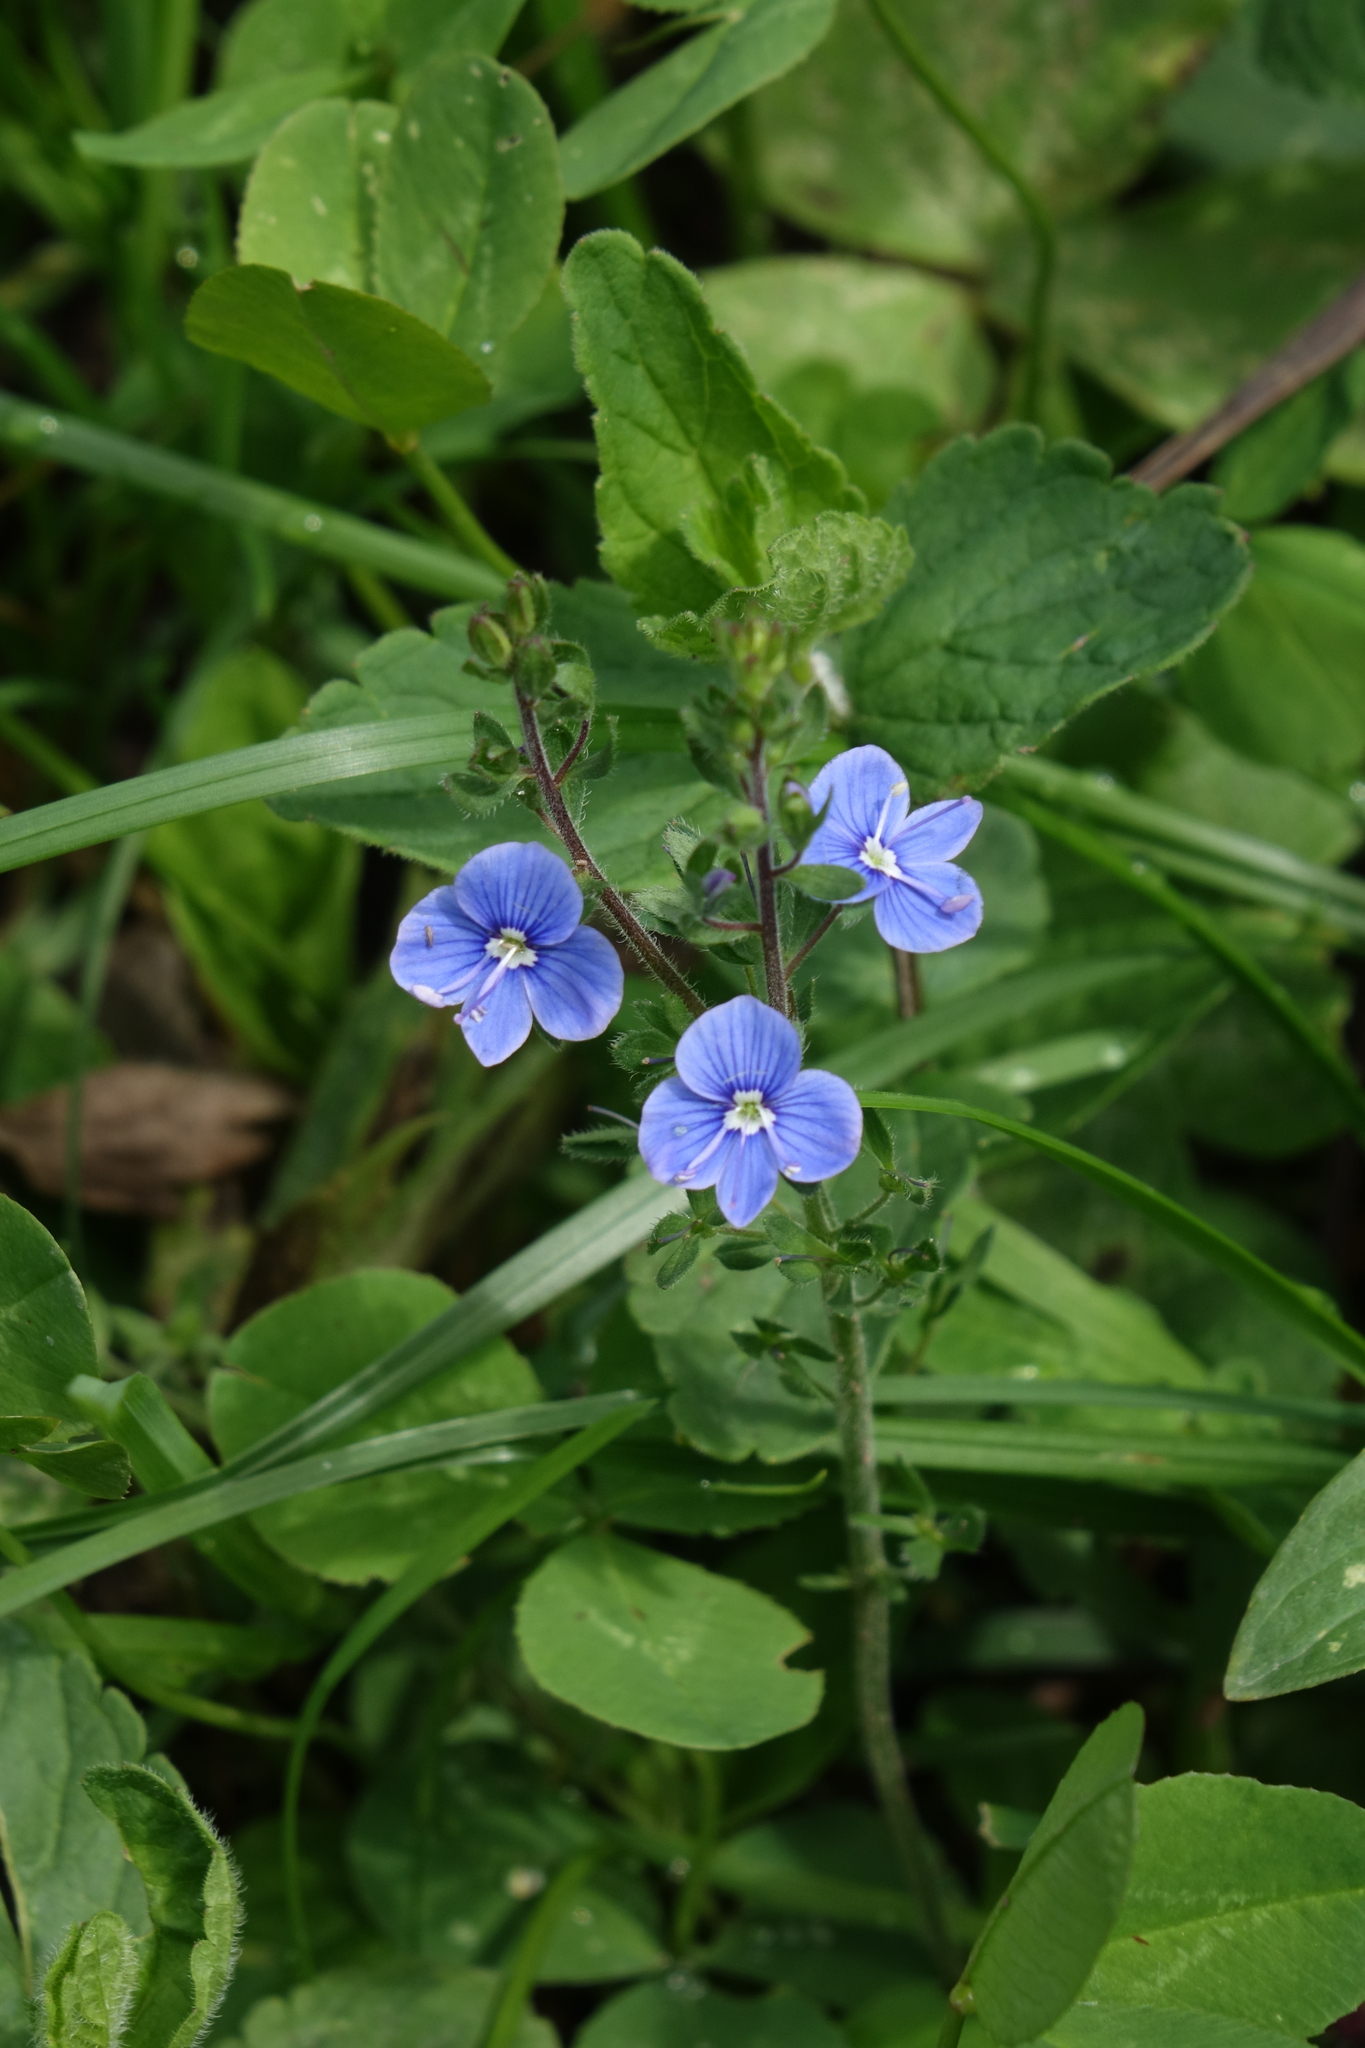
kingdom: Plantae
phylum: Tracheophyta
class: Magnoliopsida
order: Lamiales
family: Plantaginaceae
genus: Veronica
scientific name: Veronica chamaedrys
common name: Germander speedwell
